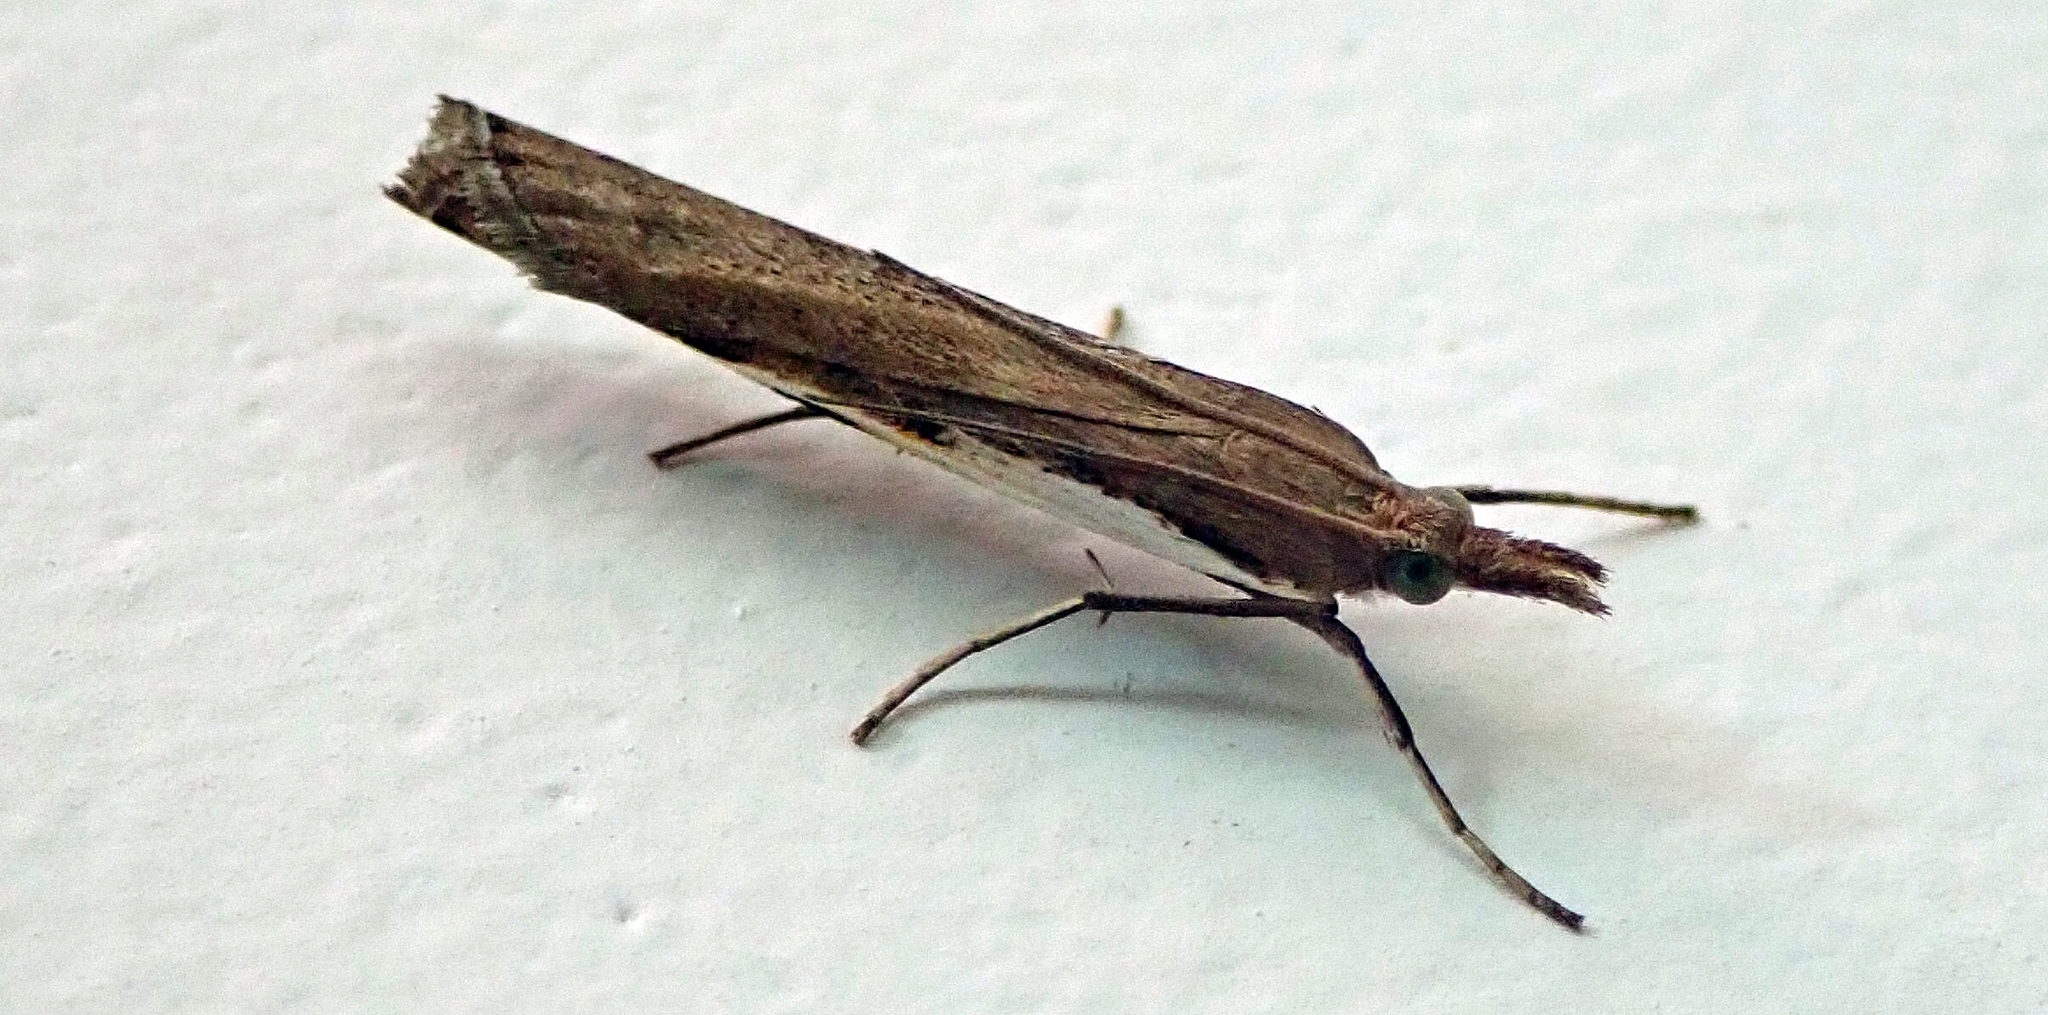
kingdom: Animalia
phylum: Arthropoda
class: Insecta
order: Lepidoptera
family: Crambidae
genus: Orocrambus
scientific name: Orocrambus horistes
